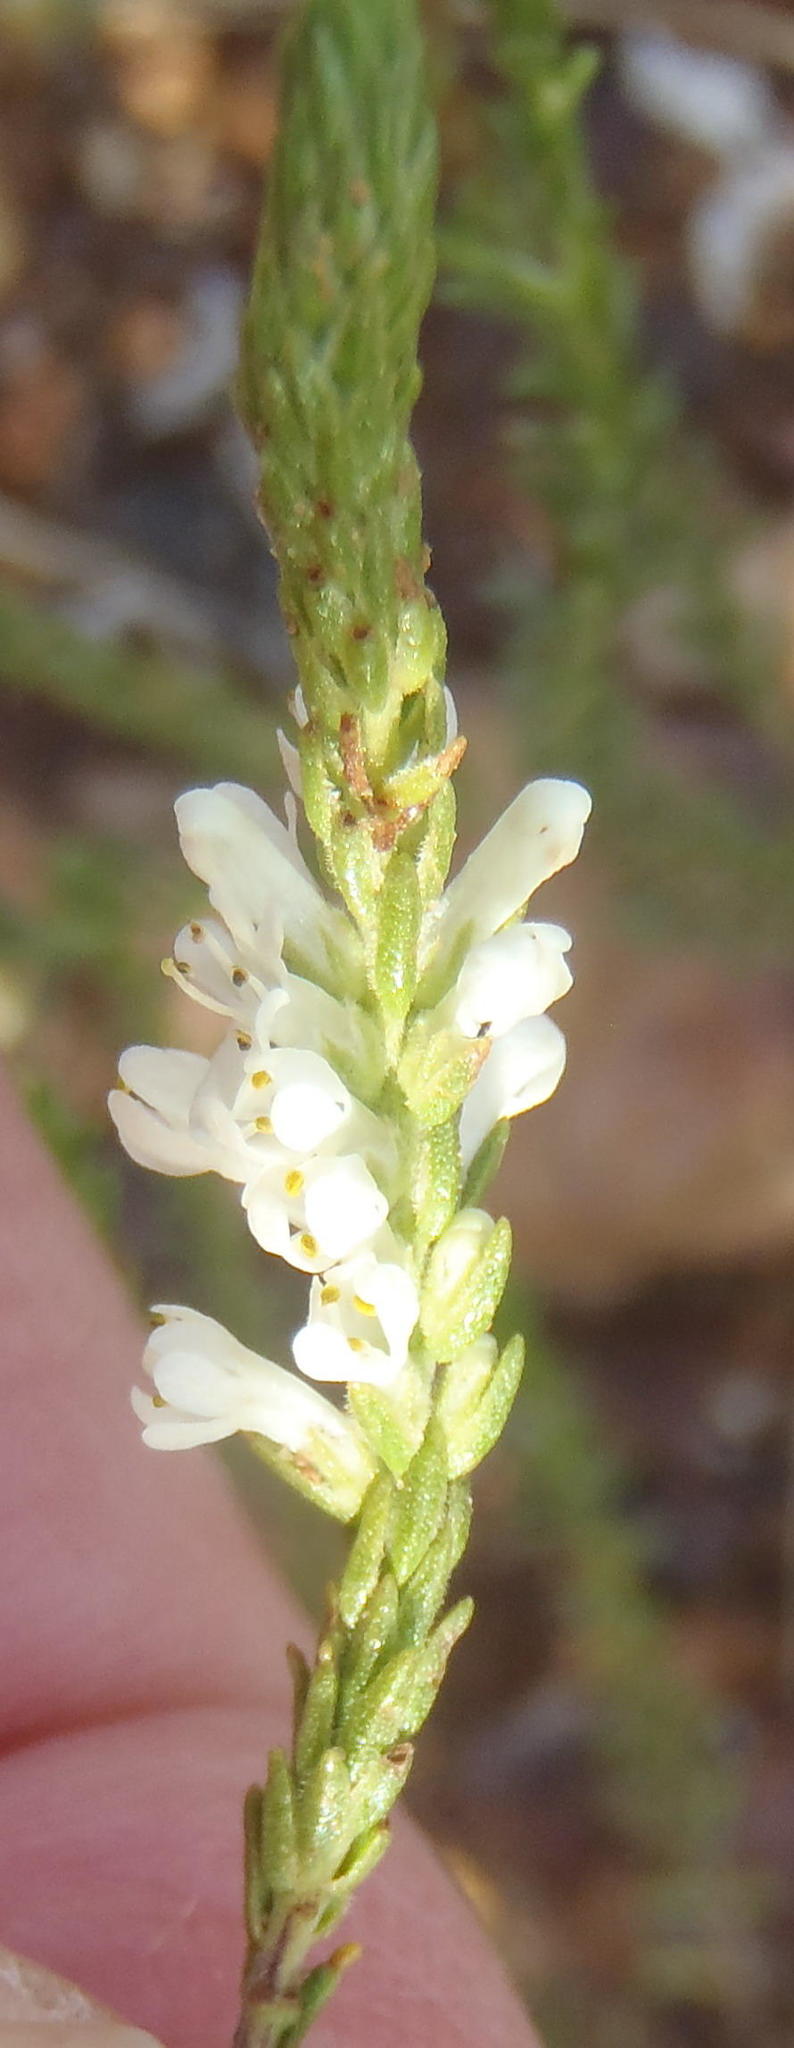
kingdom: Plantae
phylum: Tracheophyta
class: Magnoliopsida
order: Lamiales
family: Scrophulariaceae
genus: Selago
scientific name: Selago triquetra
